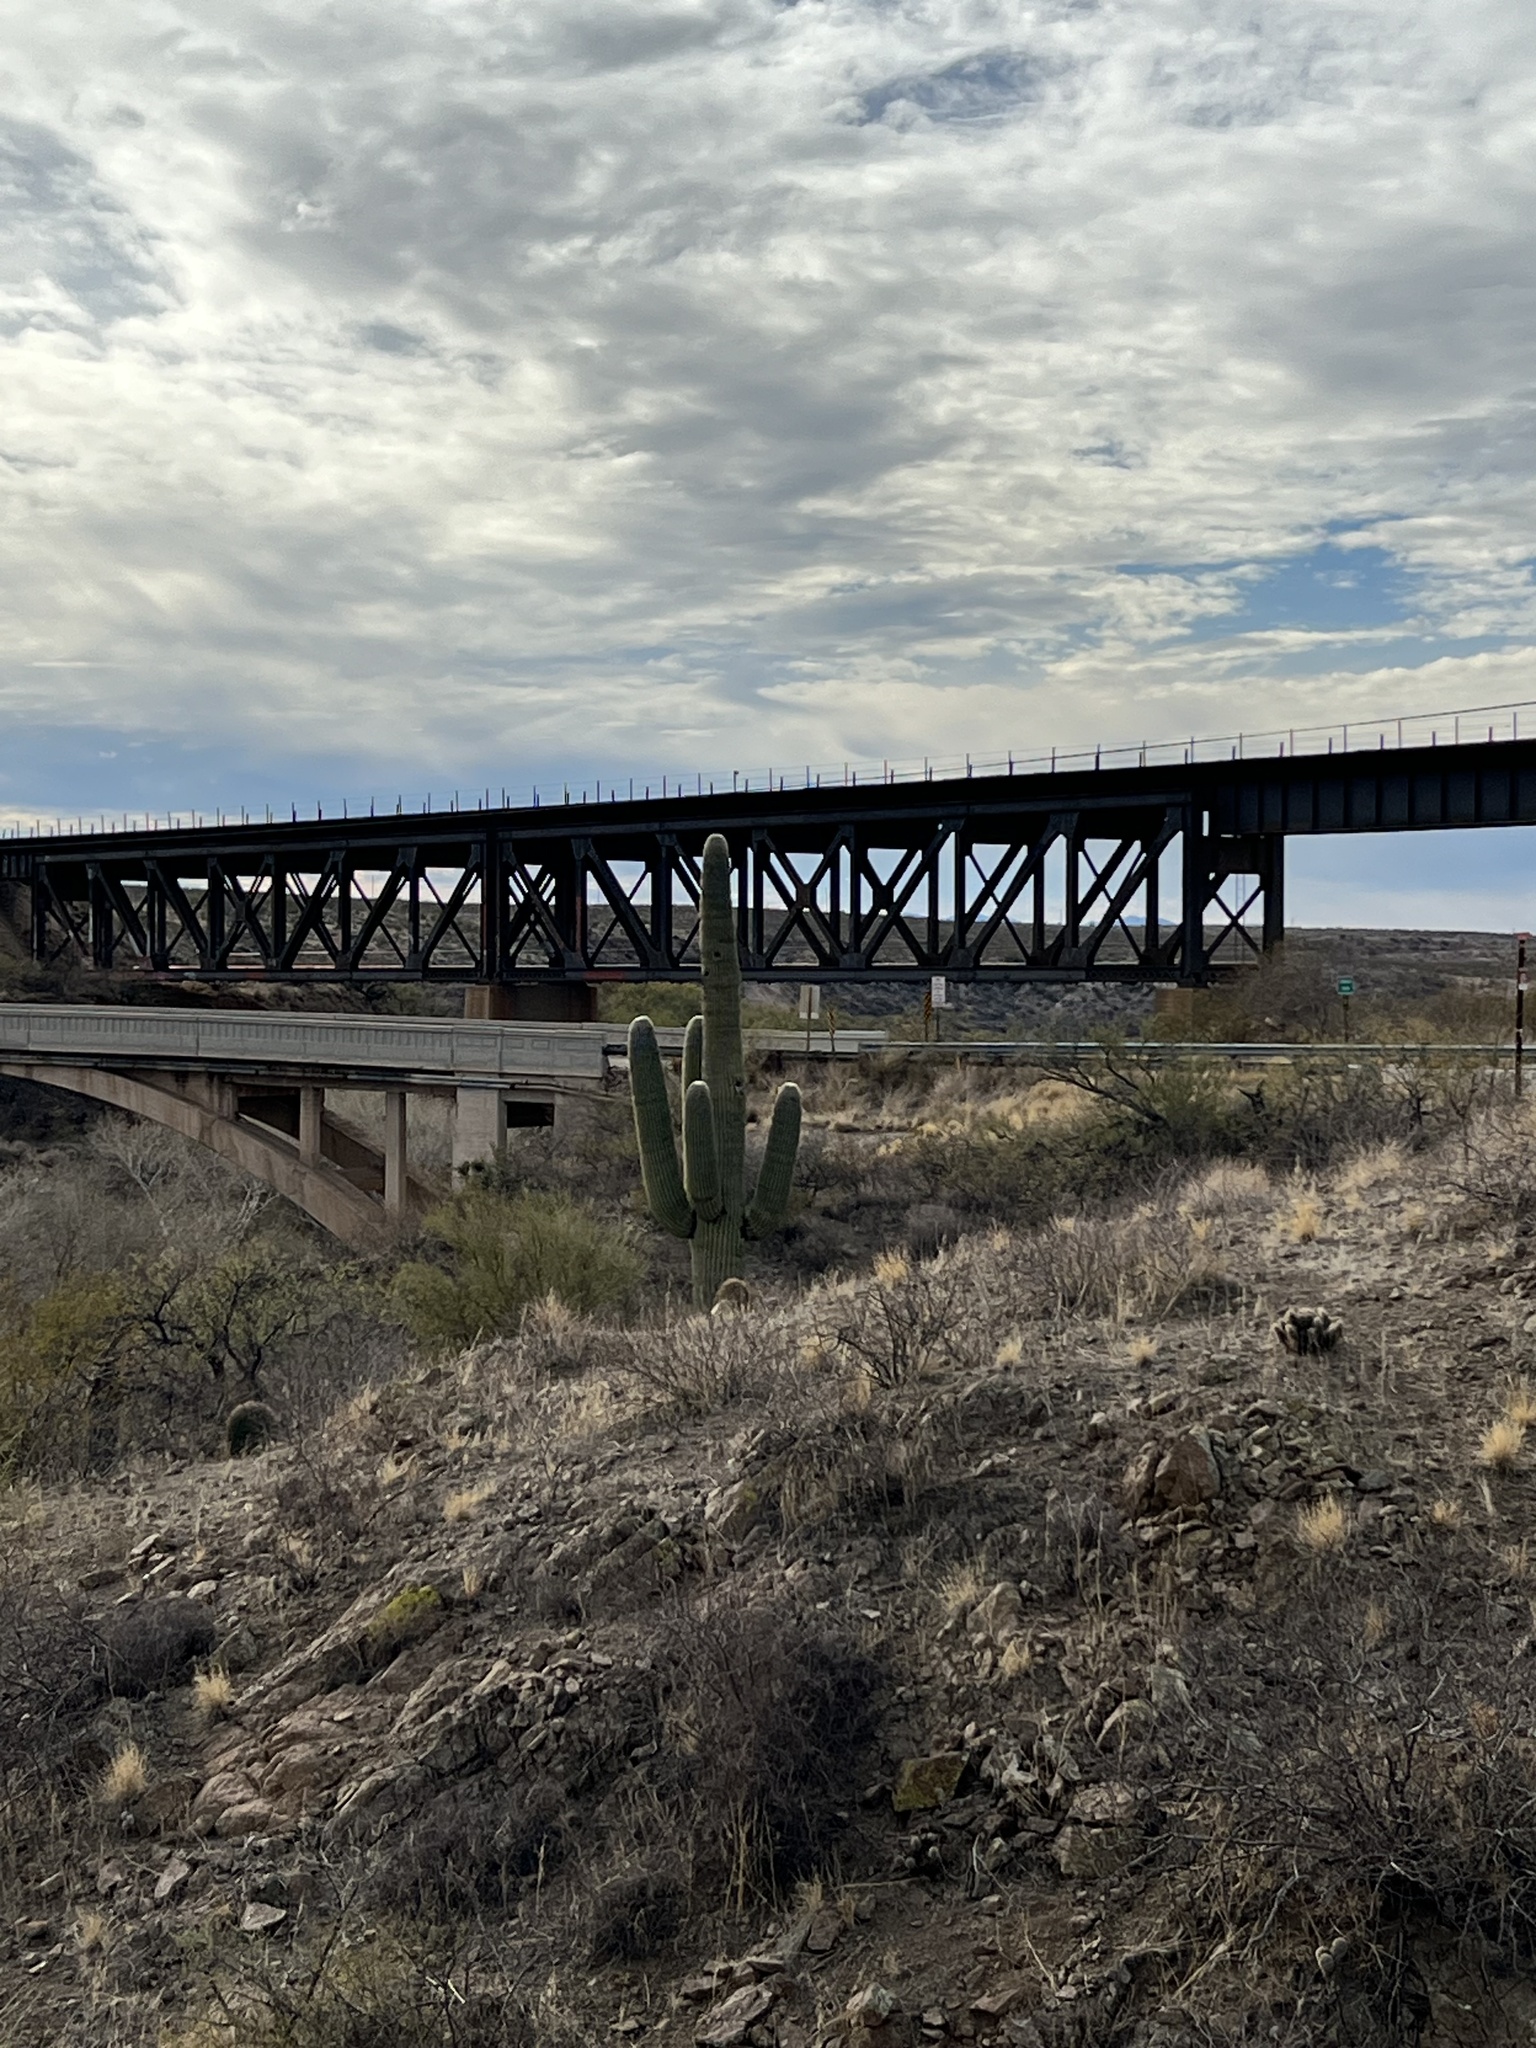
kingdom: Plantae
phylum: Tracheophyta
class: Magnoliopsida
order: Caryophyllales
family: Cactaceae
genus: Carnegiea
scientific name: Carnegiea gigantea
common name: Saguaro
